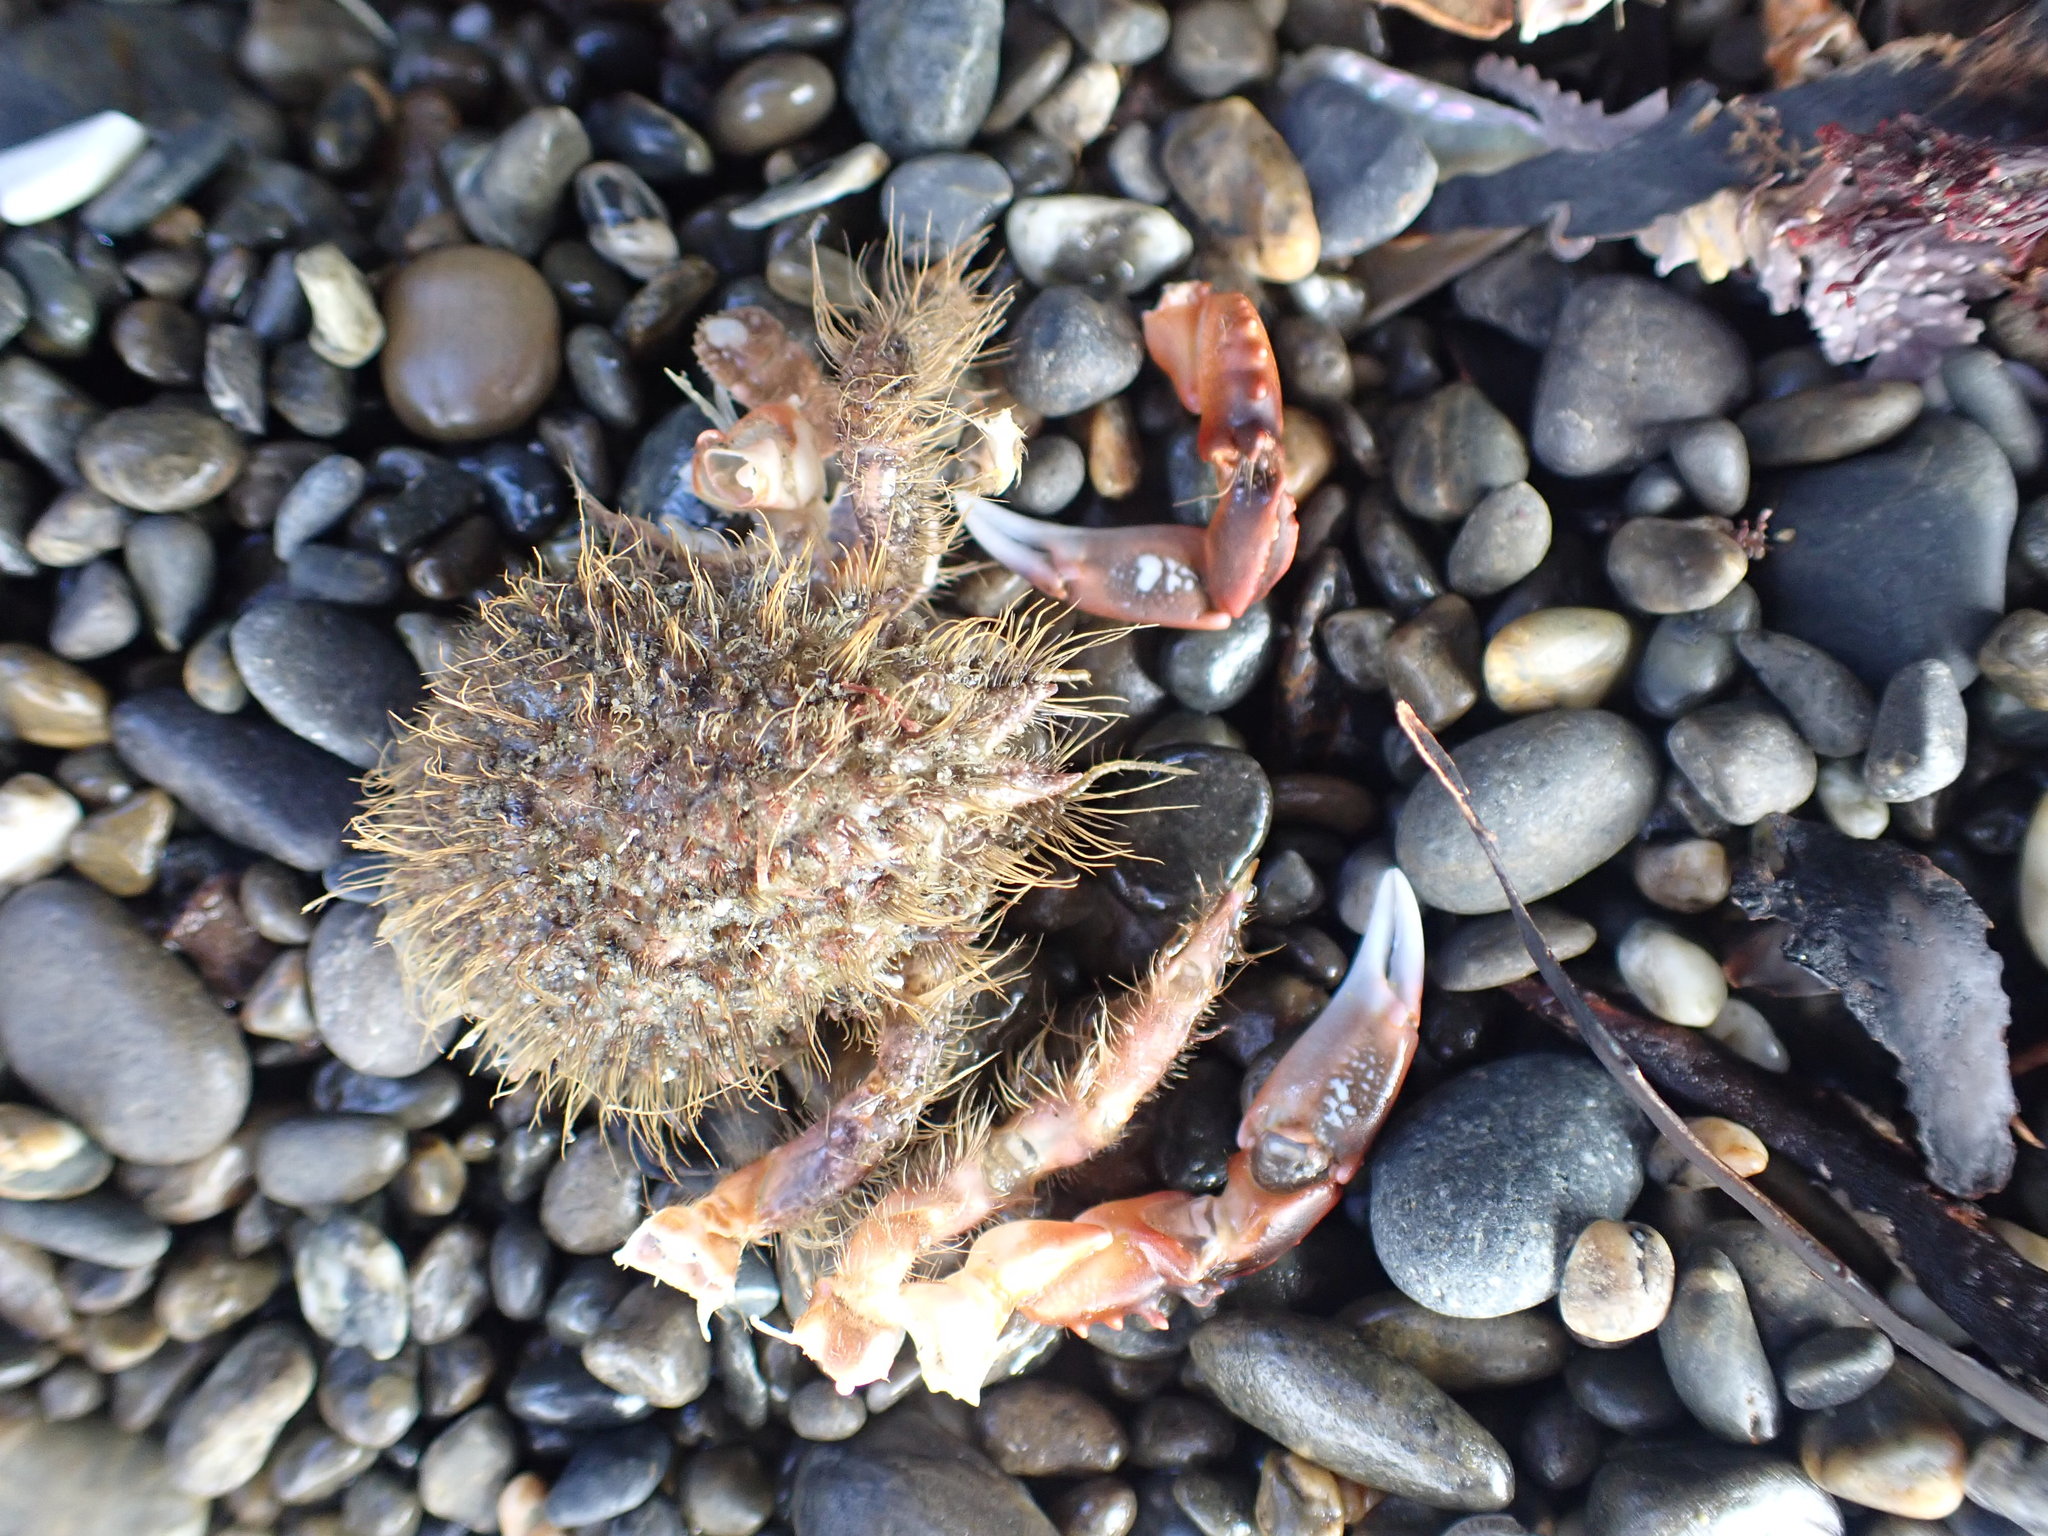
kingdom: Animalia
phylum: Arthropoda
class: Malacostraca
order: Decapoda
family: Majidae
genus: Notomithrax
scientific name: Notomithrax ursus
